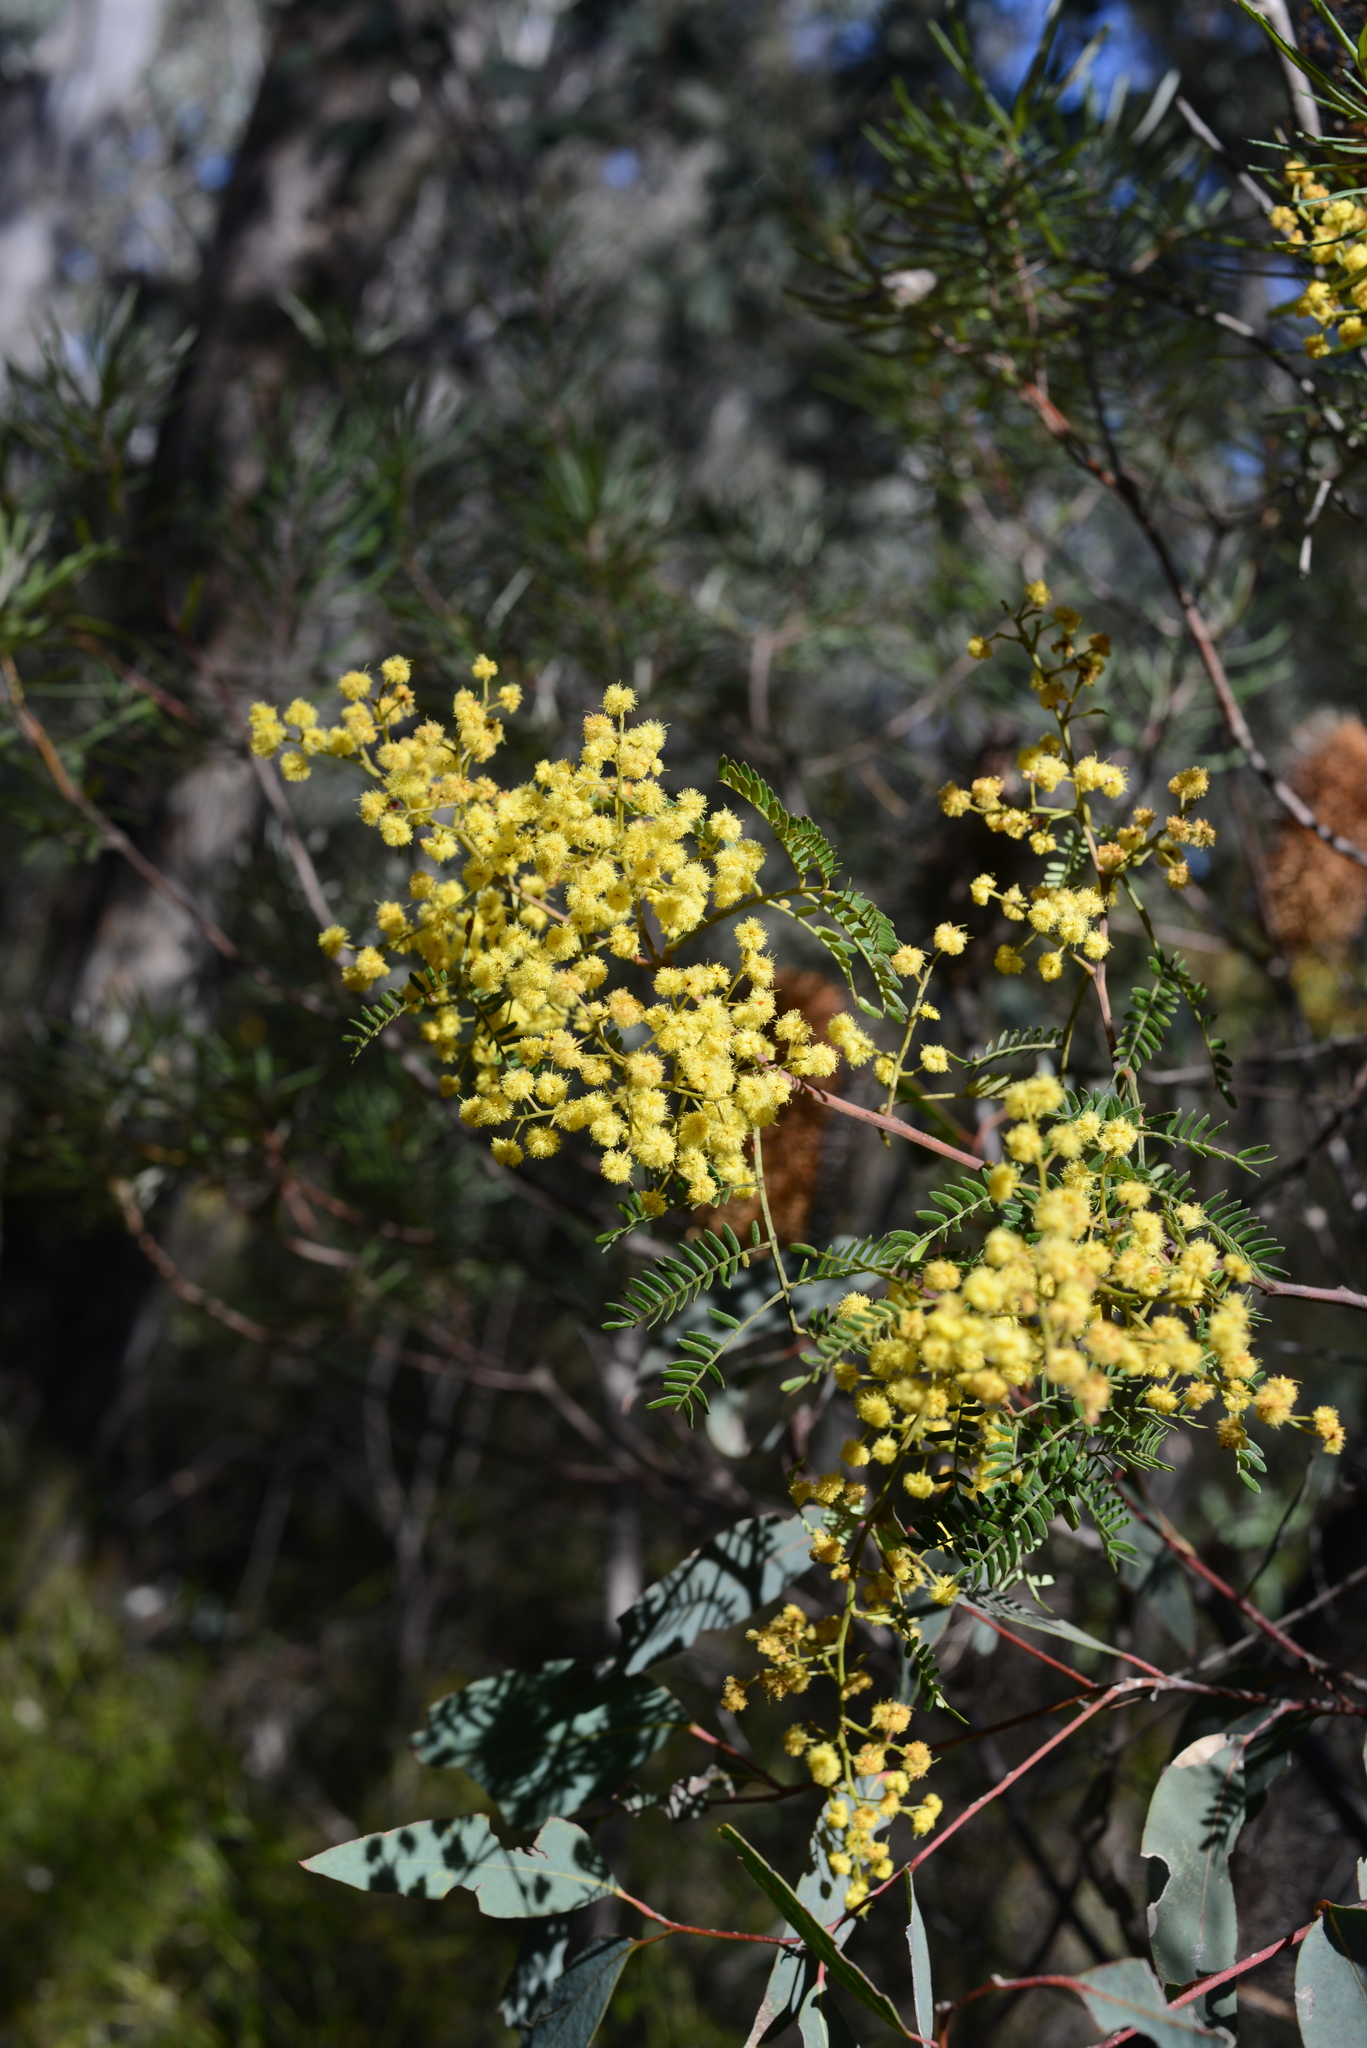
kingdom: Plantae
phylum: Tracheophyta
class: Magnoliopsida
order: Fabales
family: Fabaceae
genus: Acacia
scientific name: Acacia terminalis
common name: Cedar wattle
